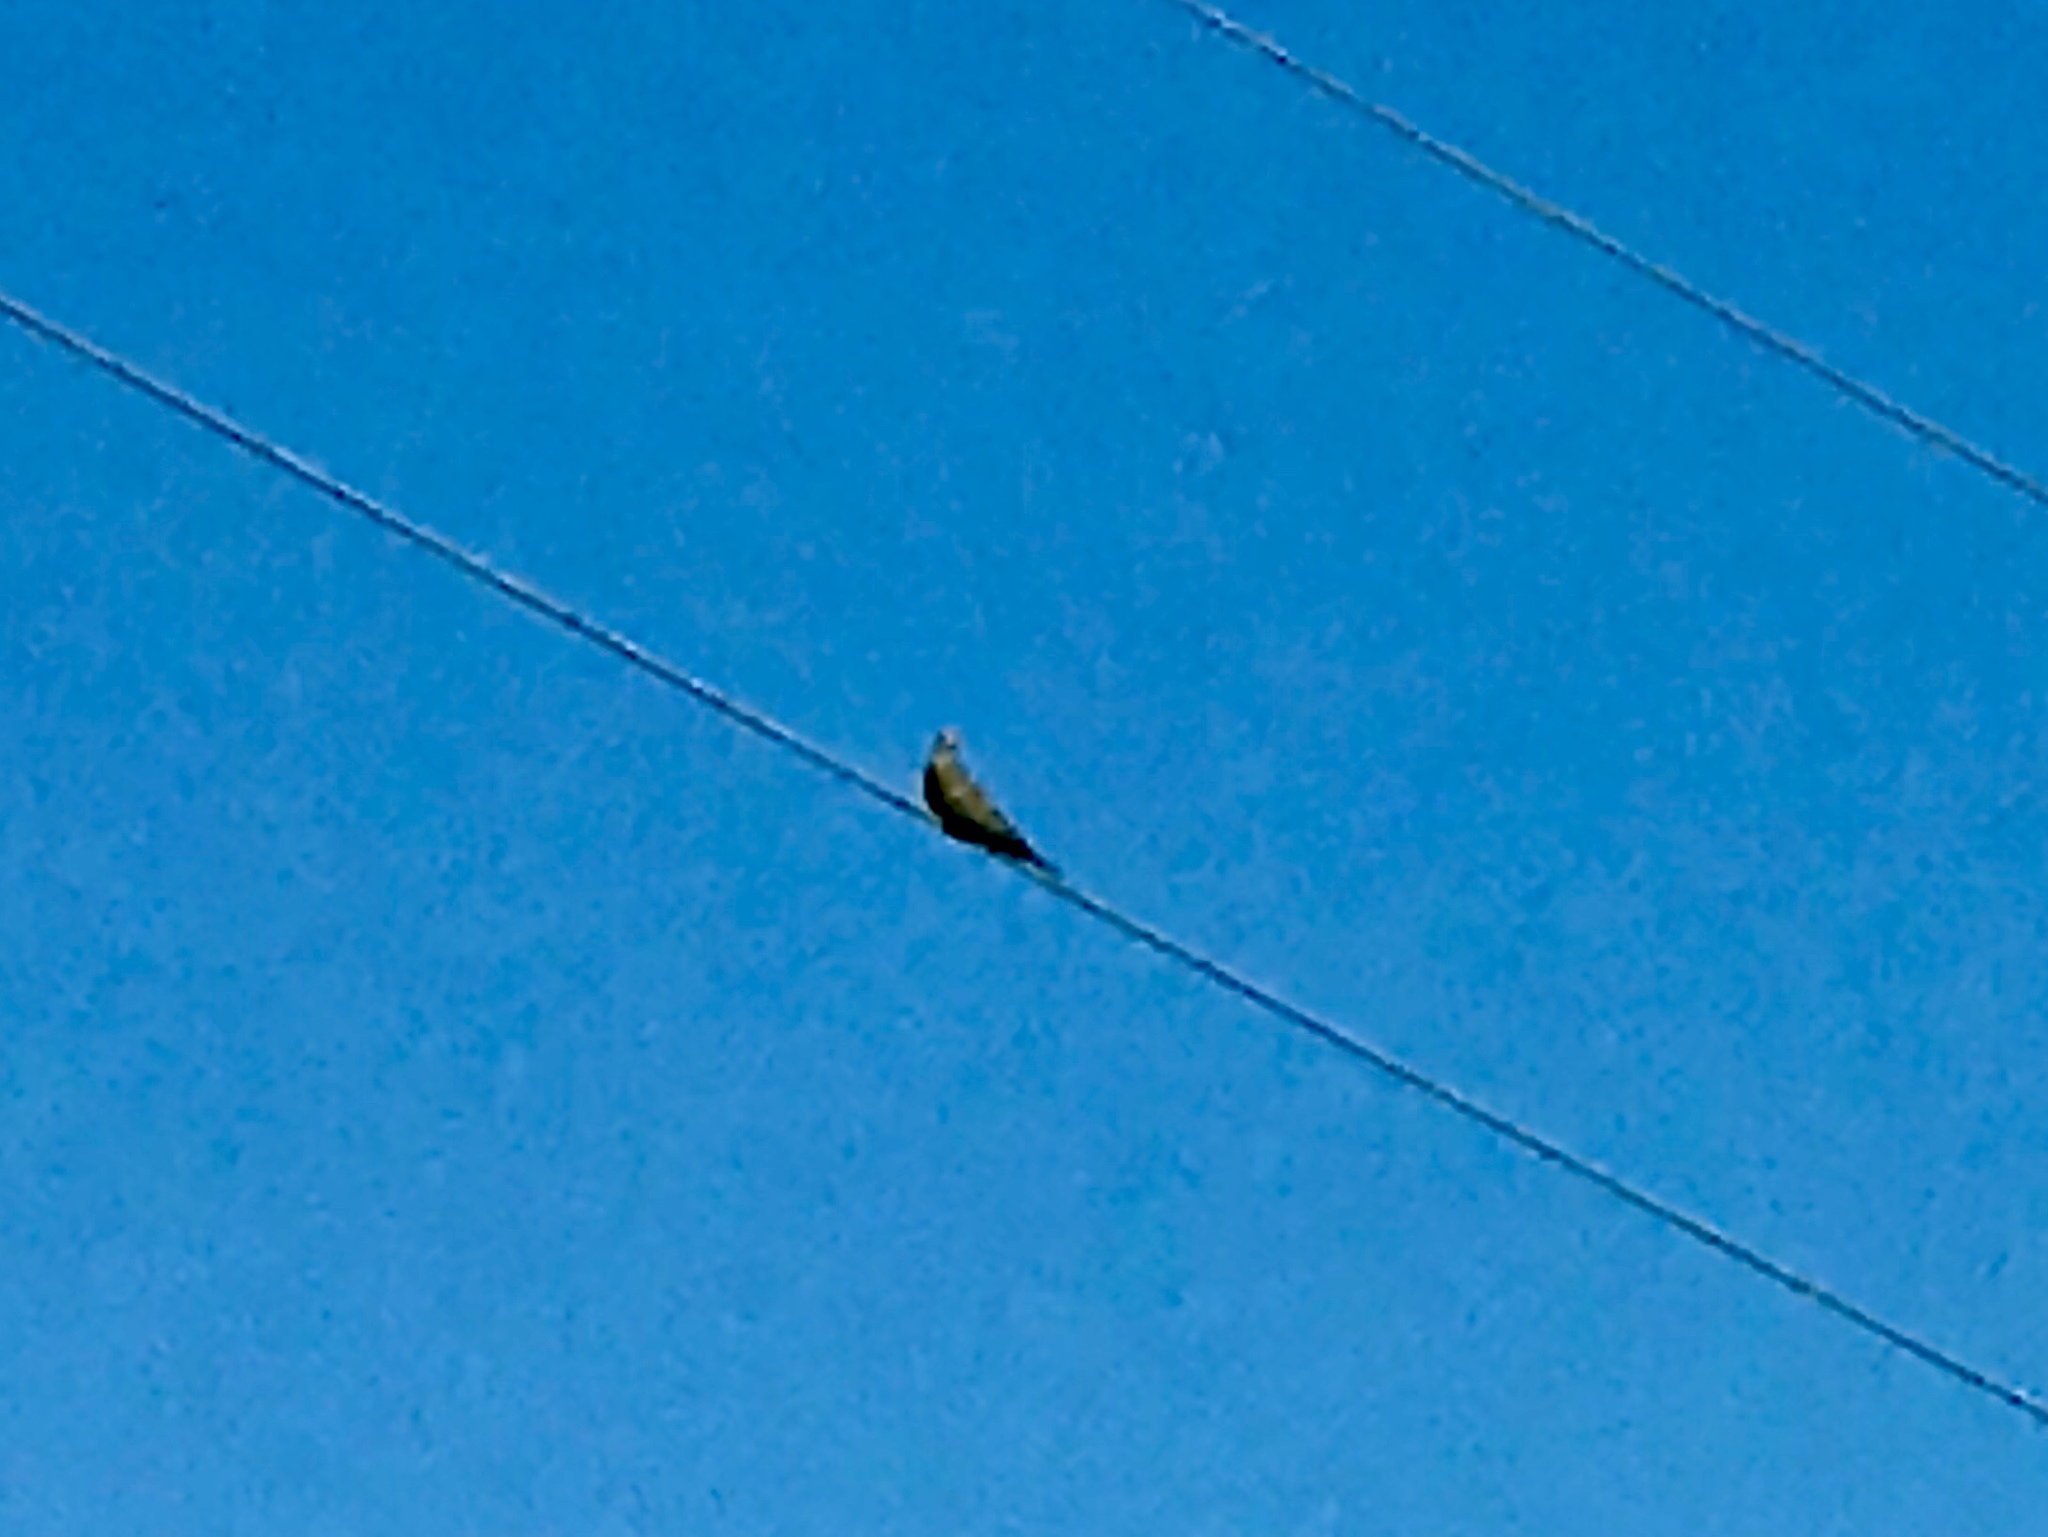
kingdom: Animalia
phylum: Chordata
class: Aves
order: Columbiformes
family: Columbidae
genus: Zenaida
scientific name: Zenaida macroura
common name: Mourning dove
